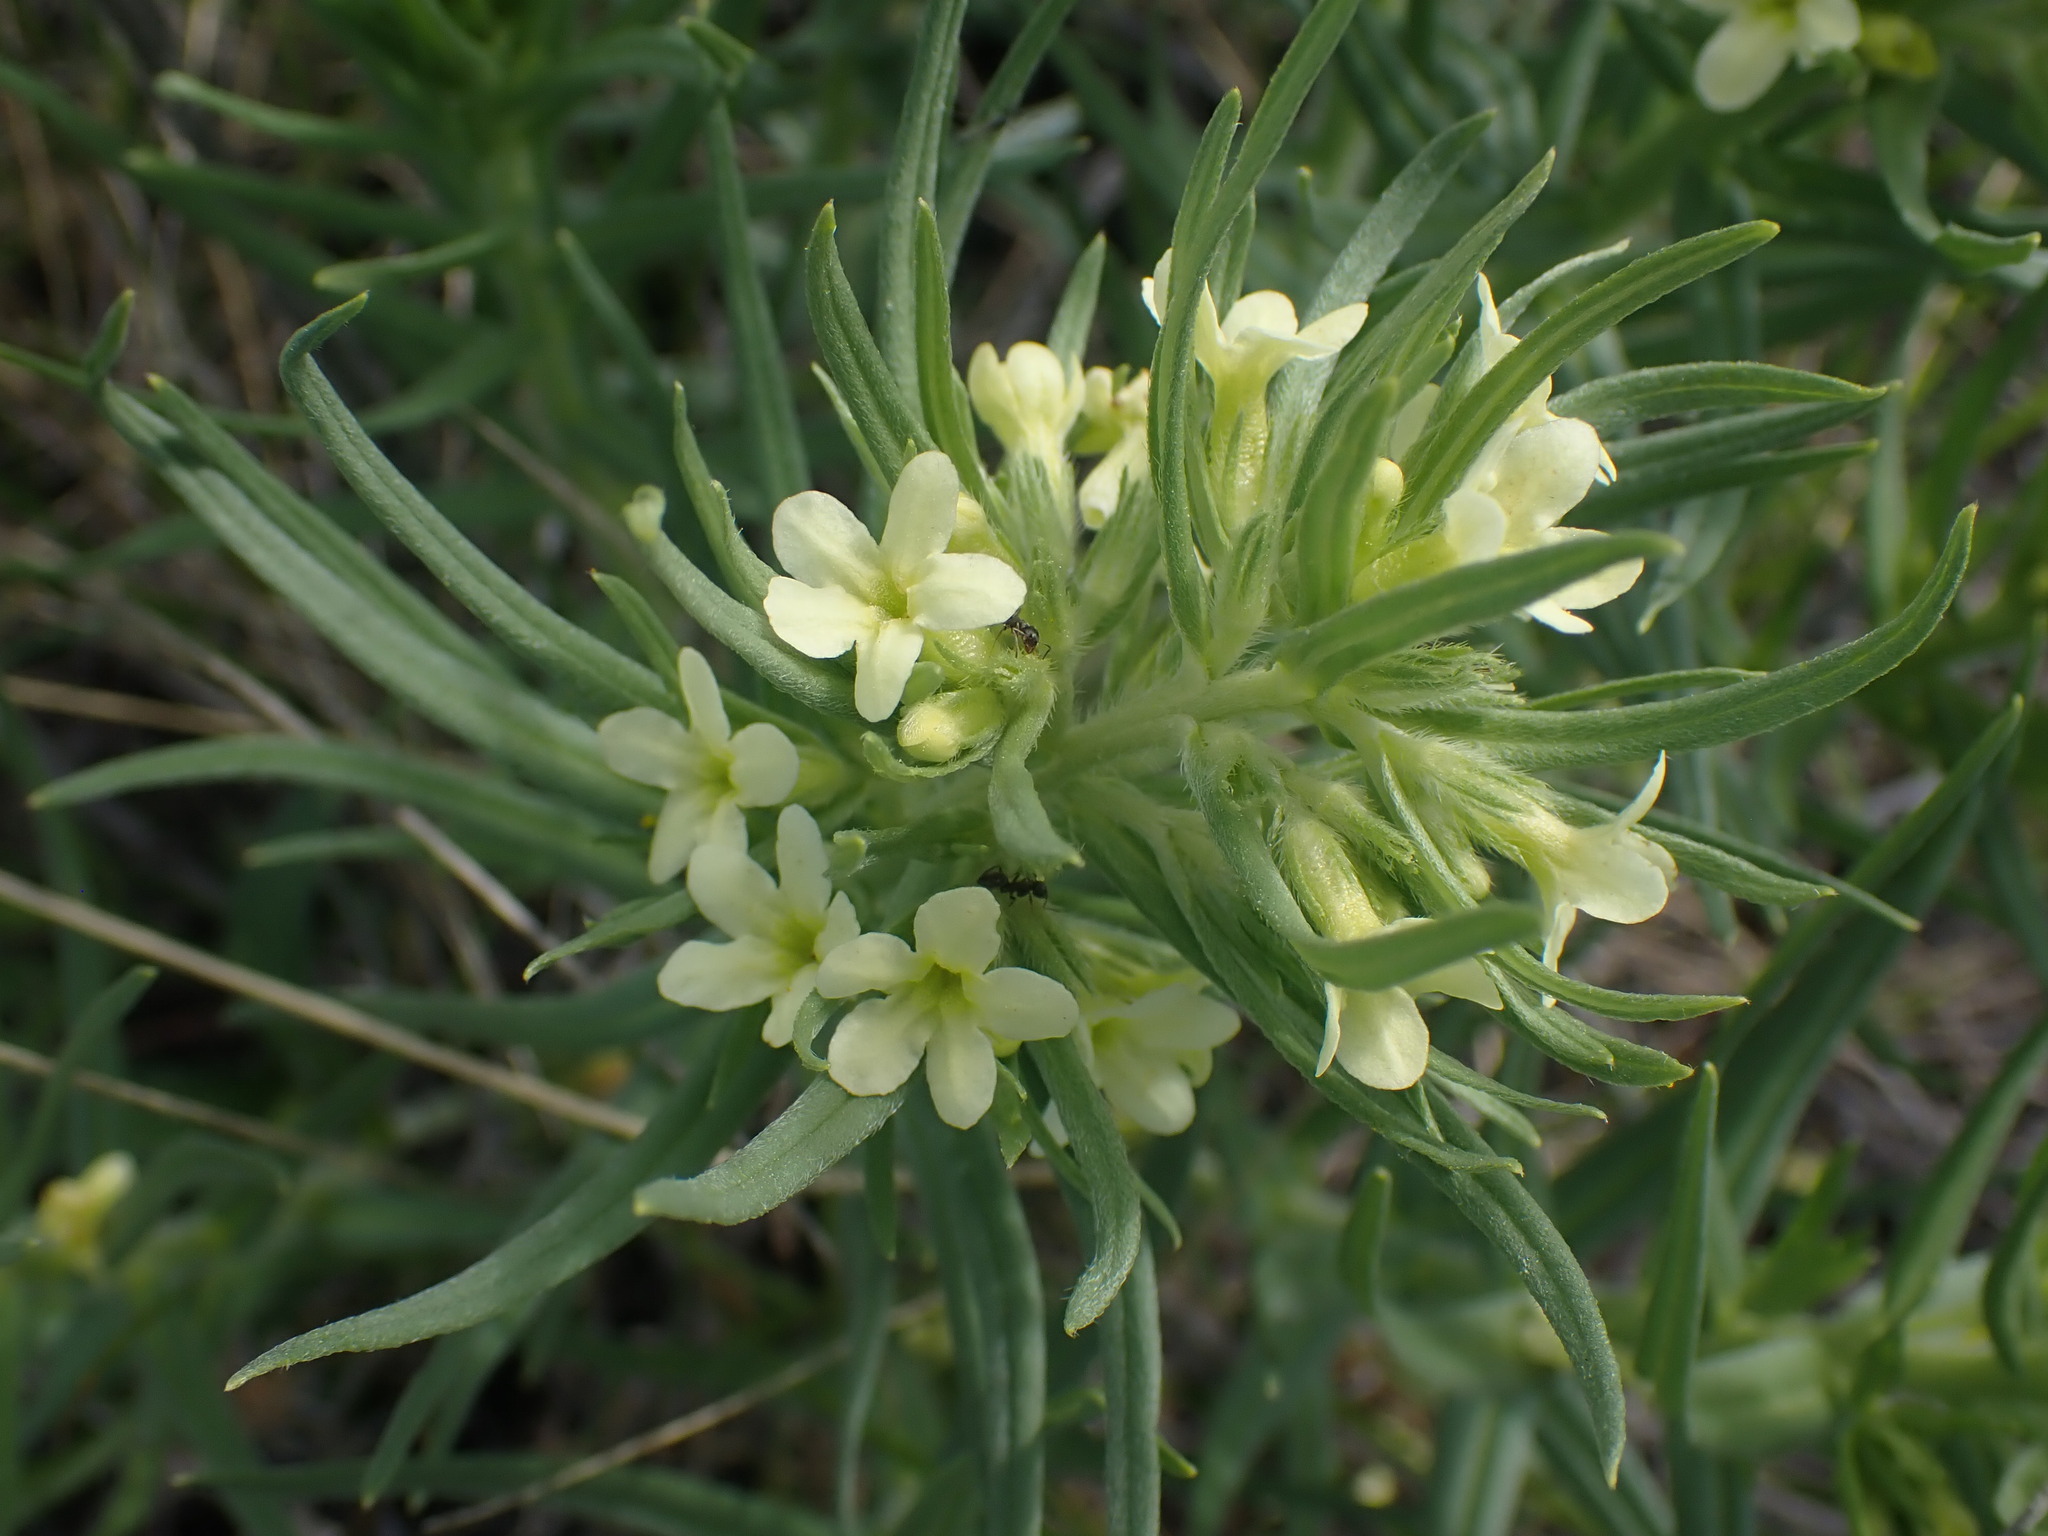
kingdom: Plantae
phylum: Tracheophyta
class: Magnoliopsida
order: Boraginales
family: Boraginaceae
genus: Lithospermum
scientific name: Lithospermum ruderale
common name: Western gromwell
